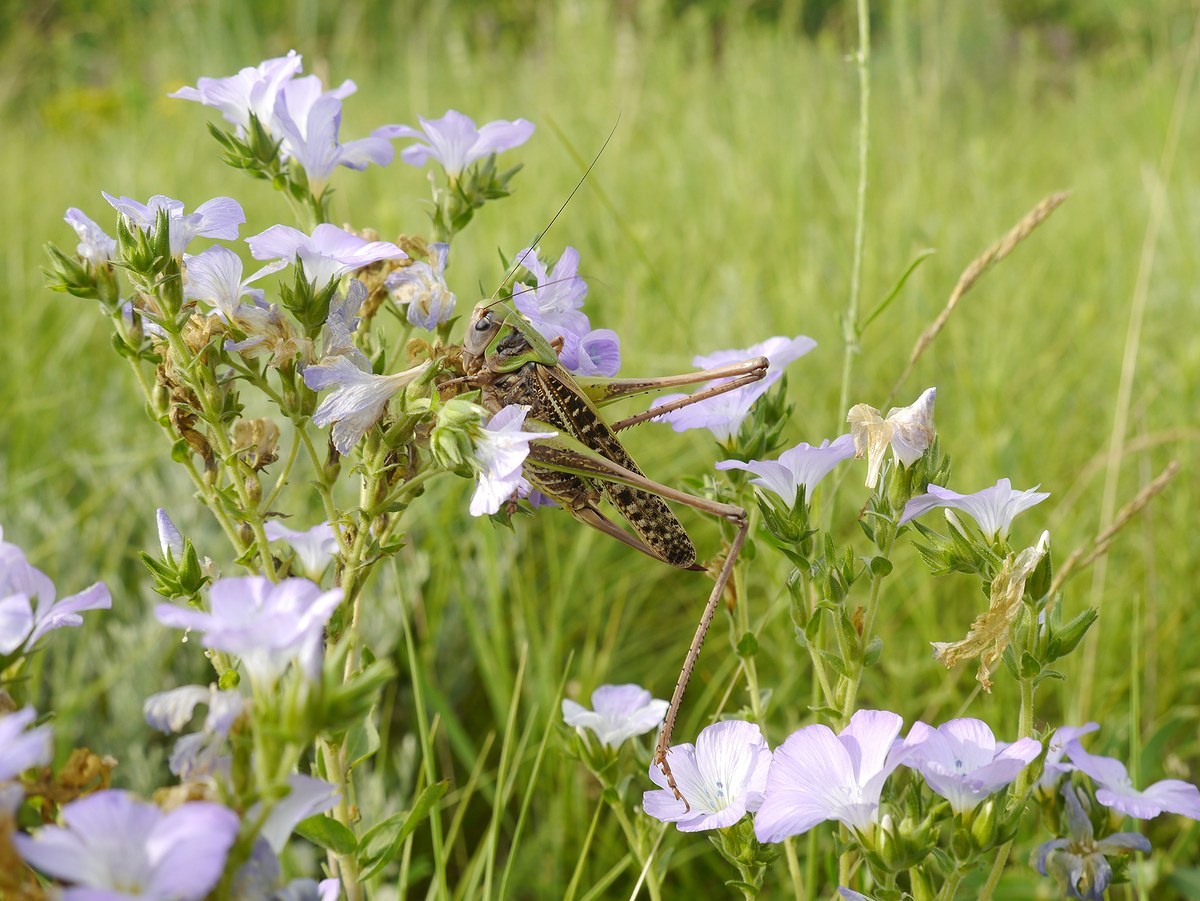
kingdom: Animalia
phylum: Arthropoda
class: Insecta
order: Orthoptera
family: Tettigoniidae
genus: Decticus
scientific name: Decticus verrucivorus
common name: Wart-biter
